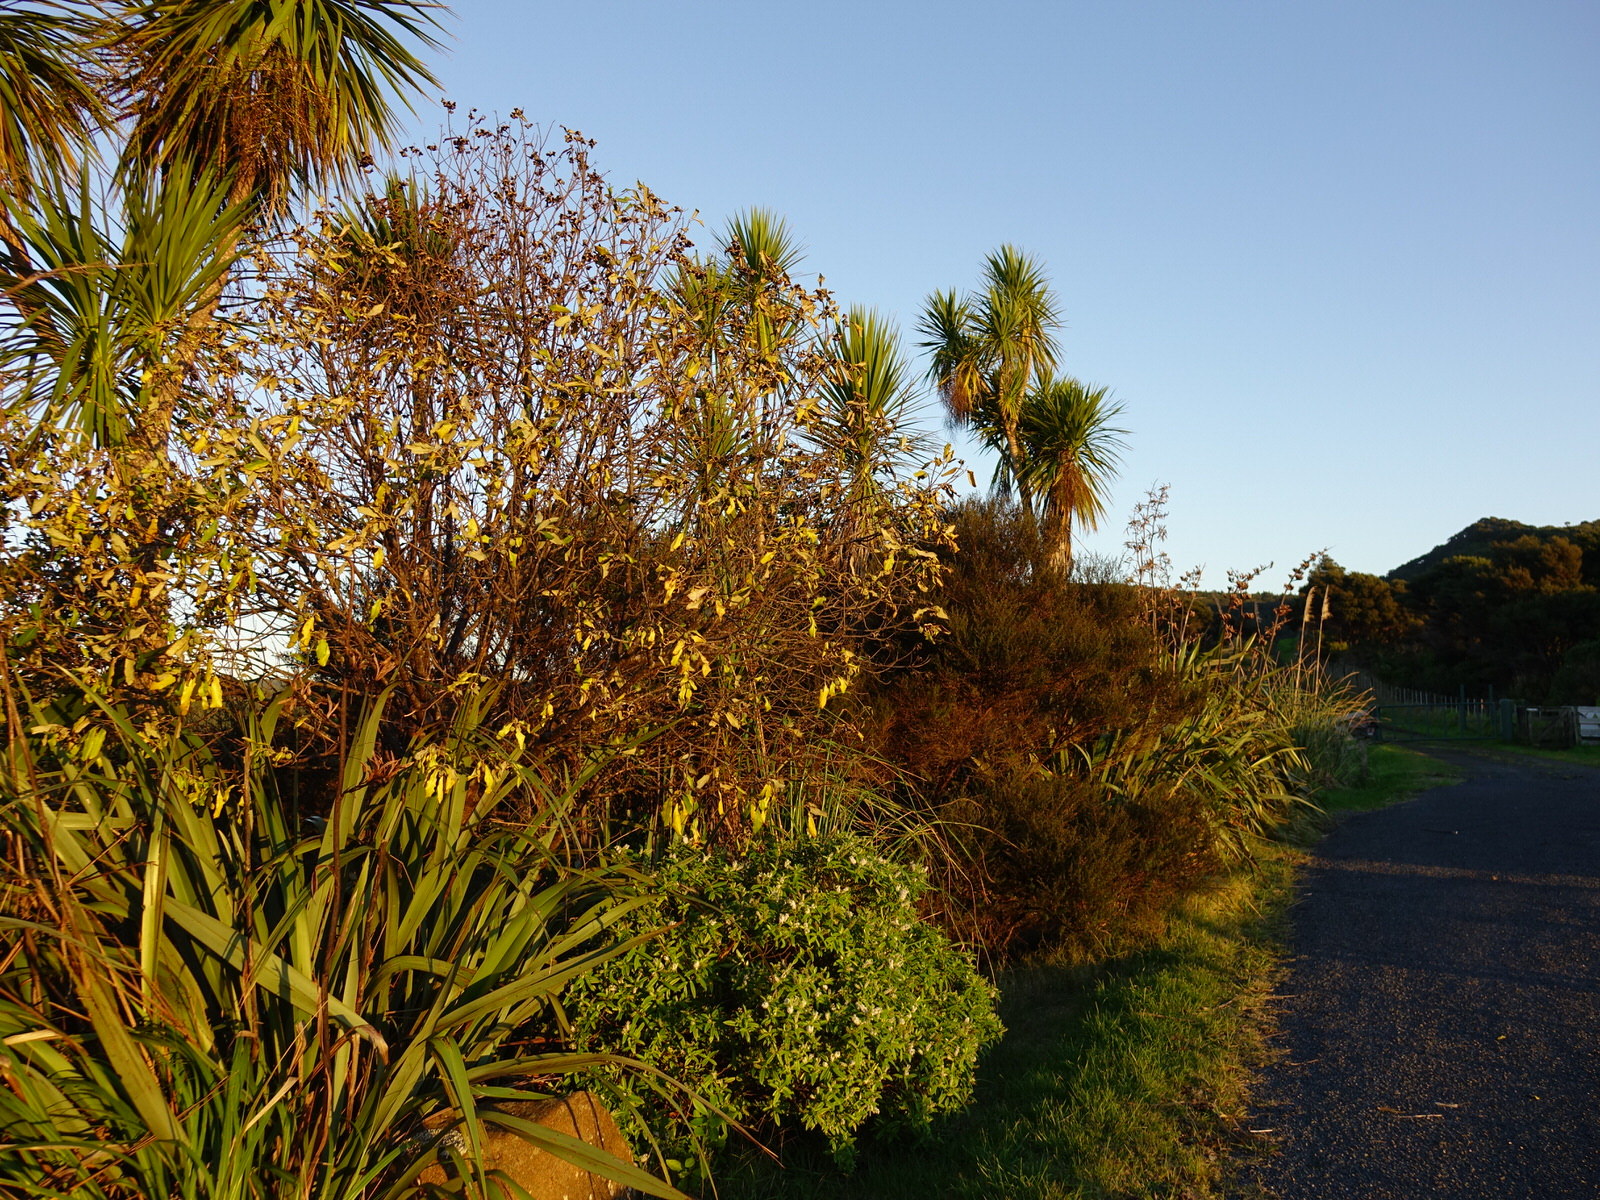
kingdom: Plantae
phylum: Tracheophyta
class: Magnoliopsida
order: Apiales
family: Pittosporaceae
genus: Pittosporum
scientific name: Pittosporum crassifolium
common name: Karo
